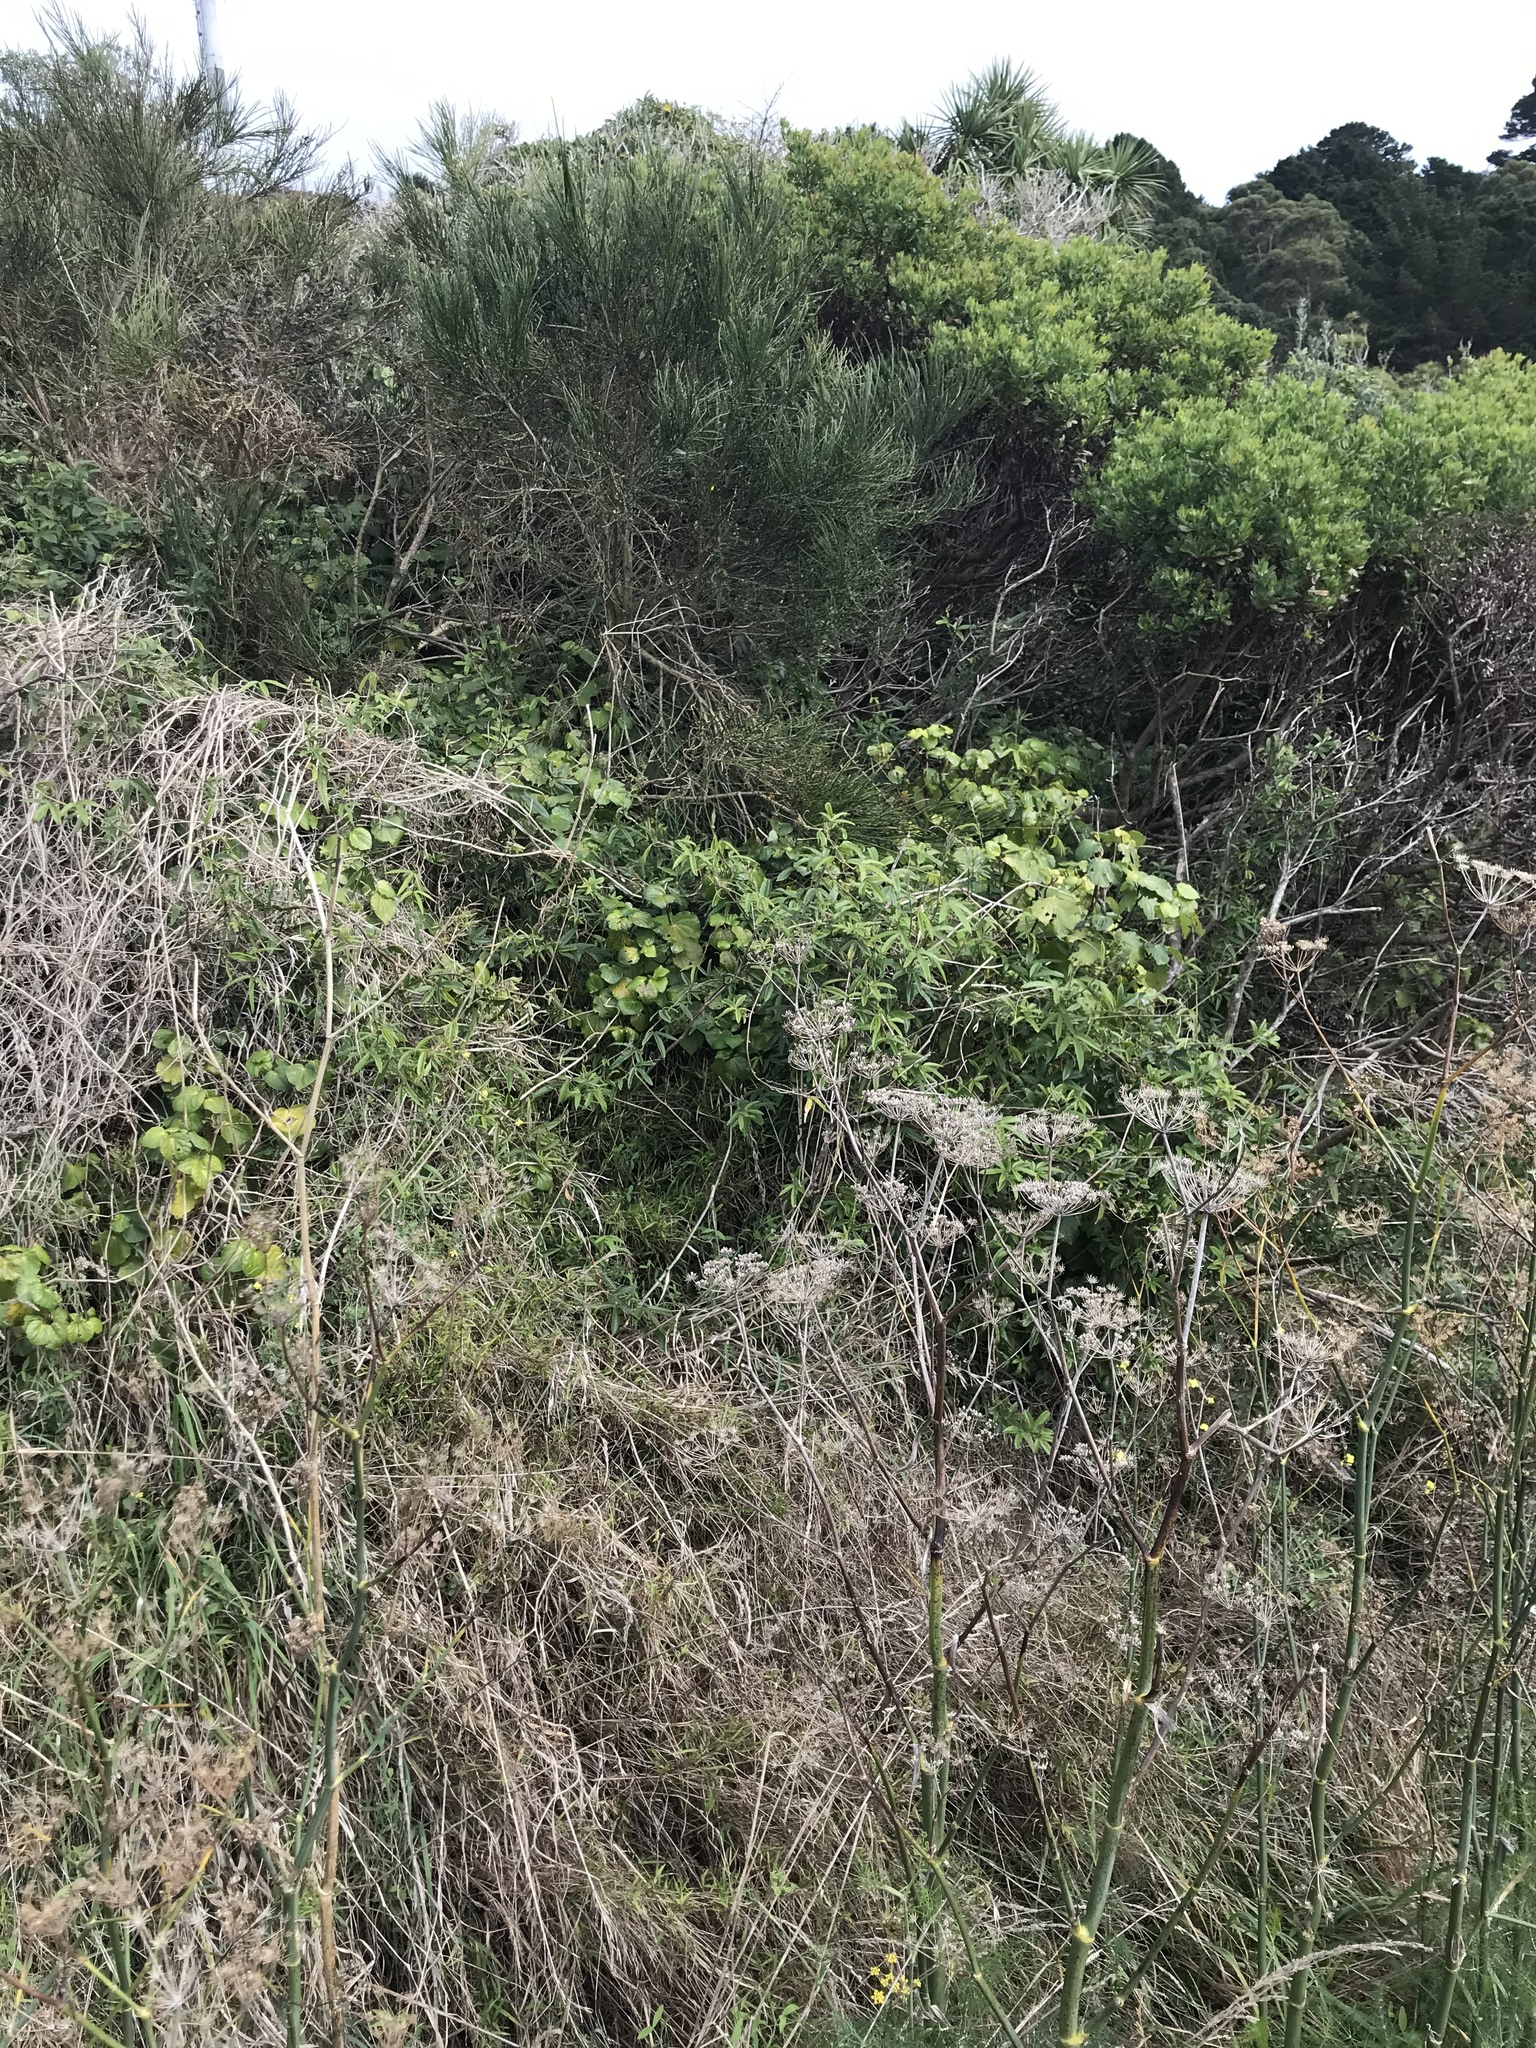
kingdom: Plantae
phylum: Tracheophyta
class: Magnoliopsida
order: Malpighiales
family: Passifloraceae
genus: Passiflora
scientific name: Passiflora tripartita
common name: Banana poka
